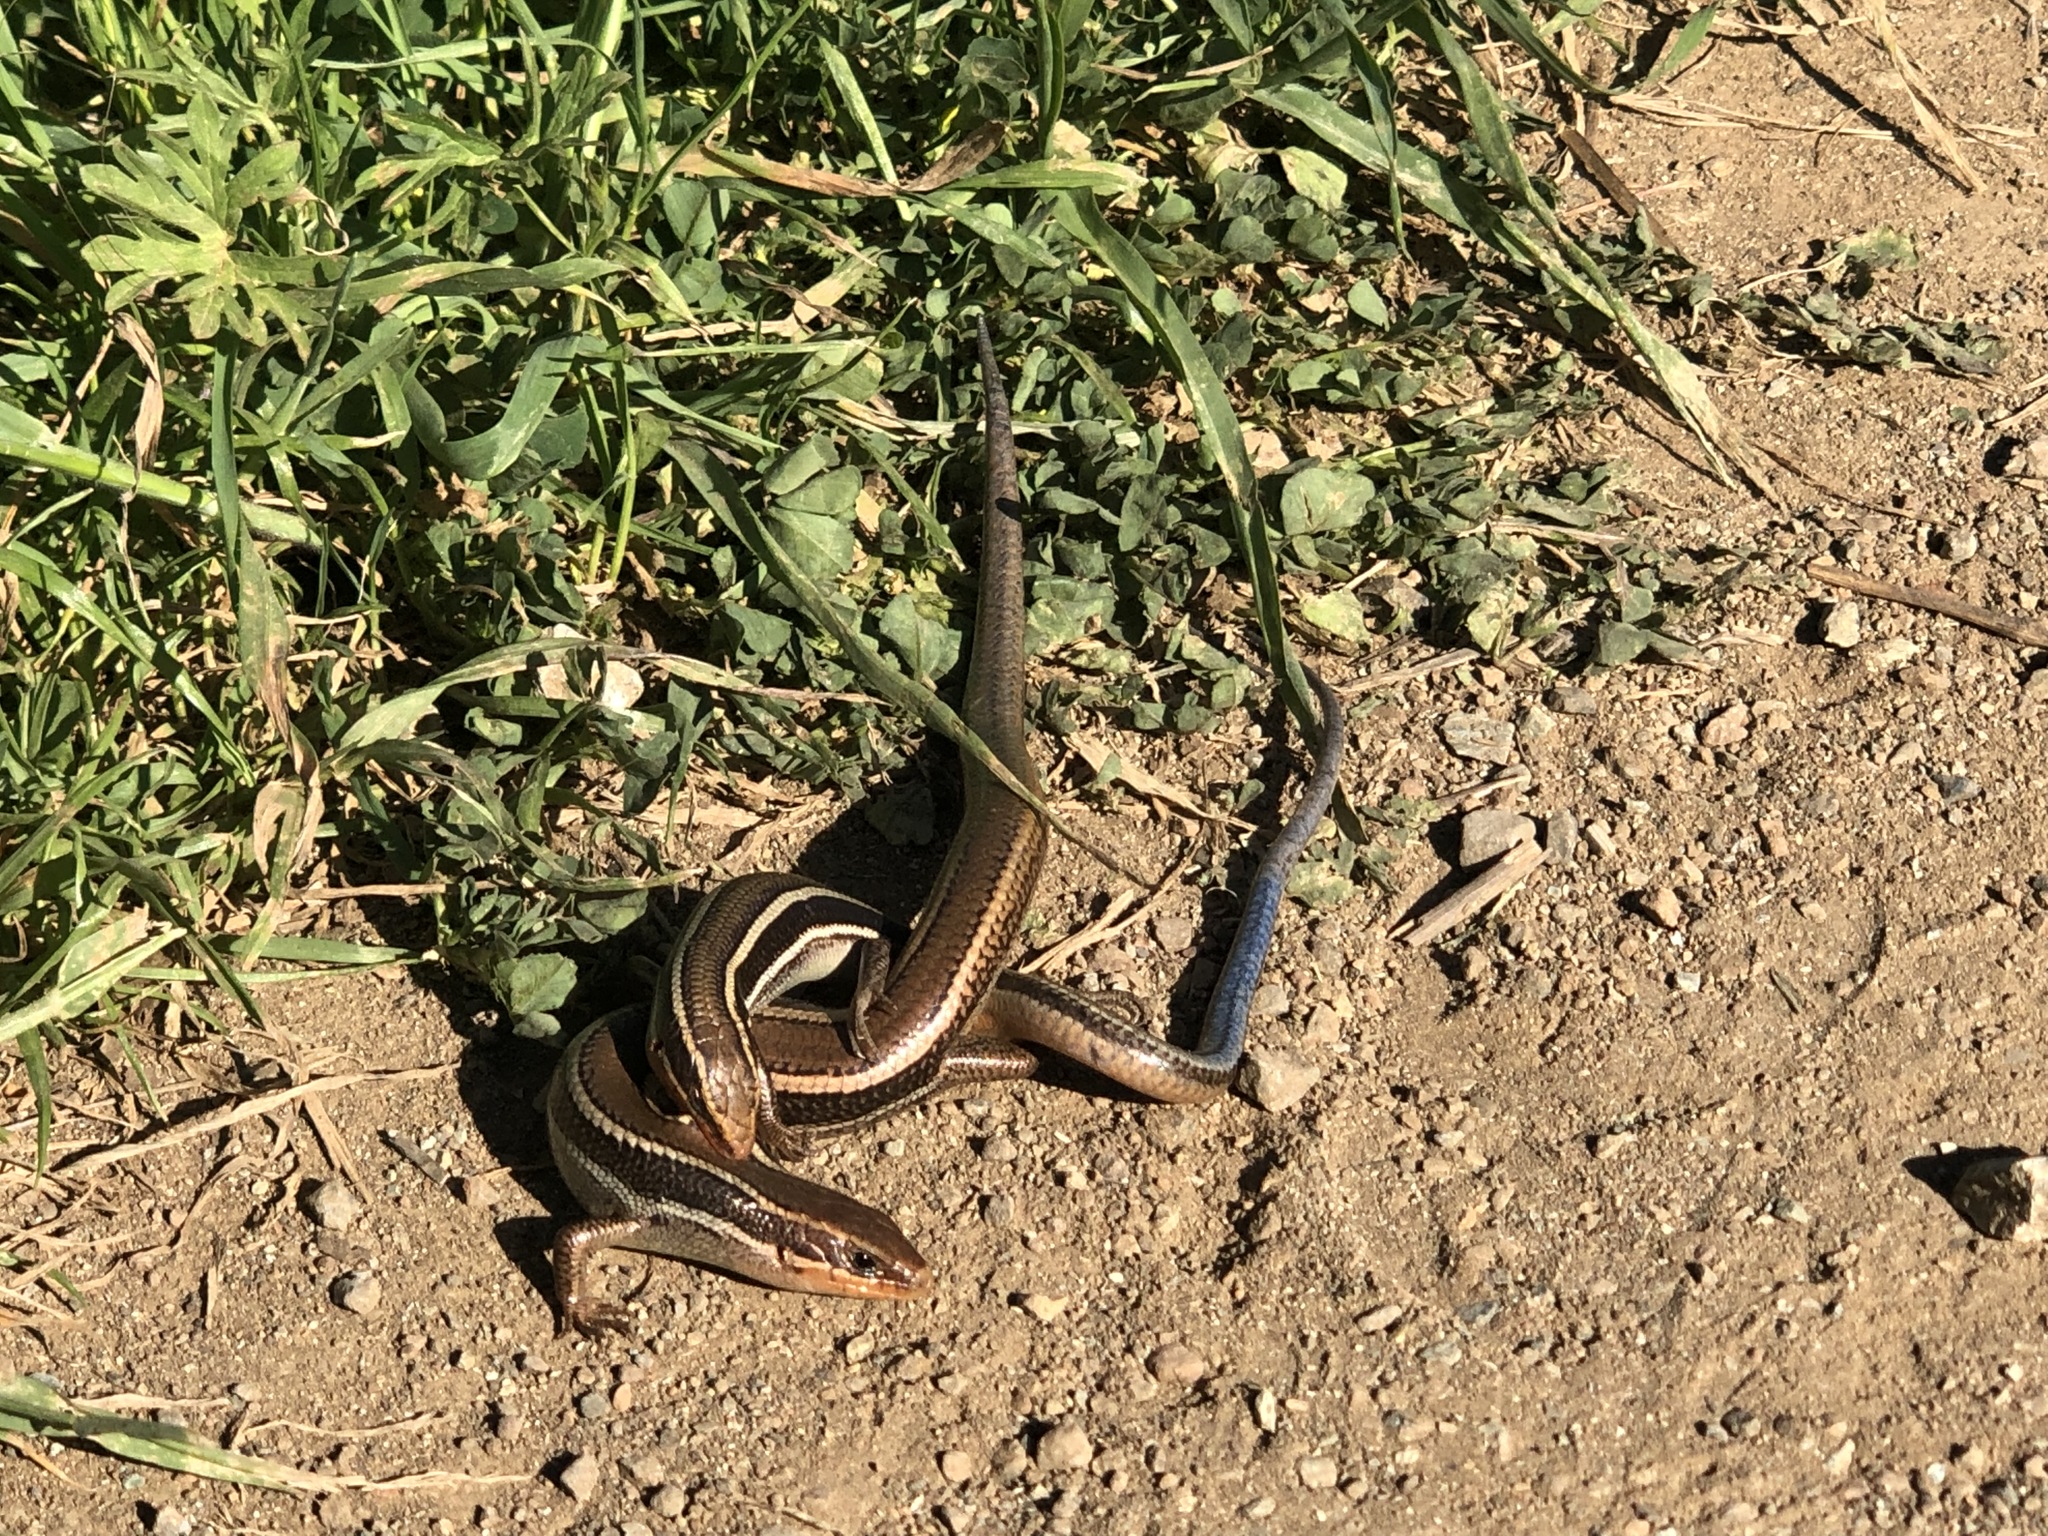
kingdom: Animalia
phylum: Chordata
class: Squamata
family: Scincidae
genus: Plestiodon
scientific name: Plestiodon skiltonianus
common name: Coronado island skink [interparietalis]
